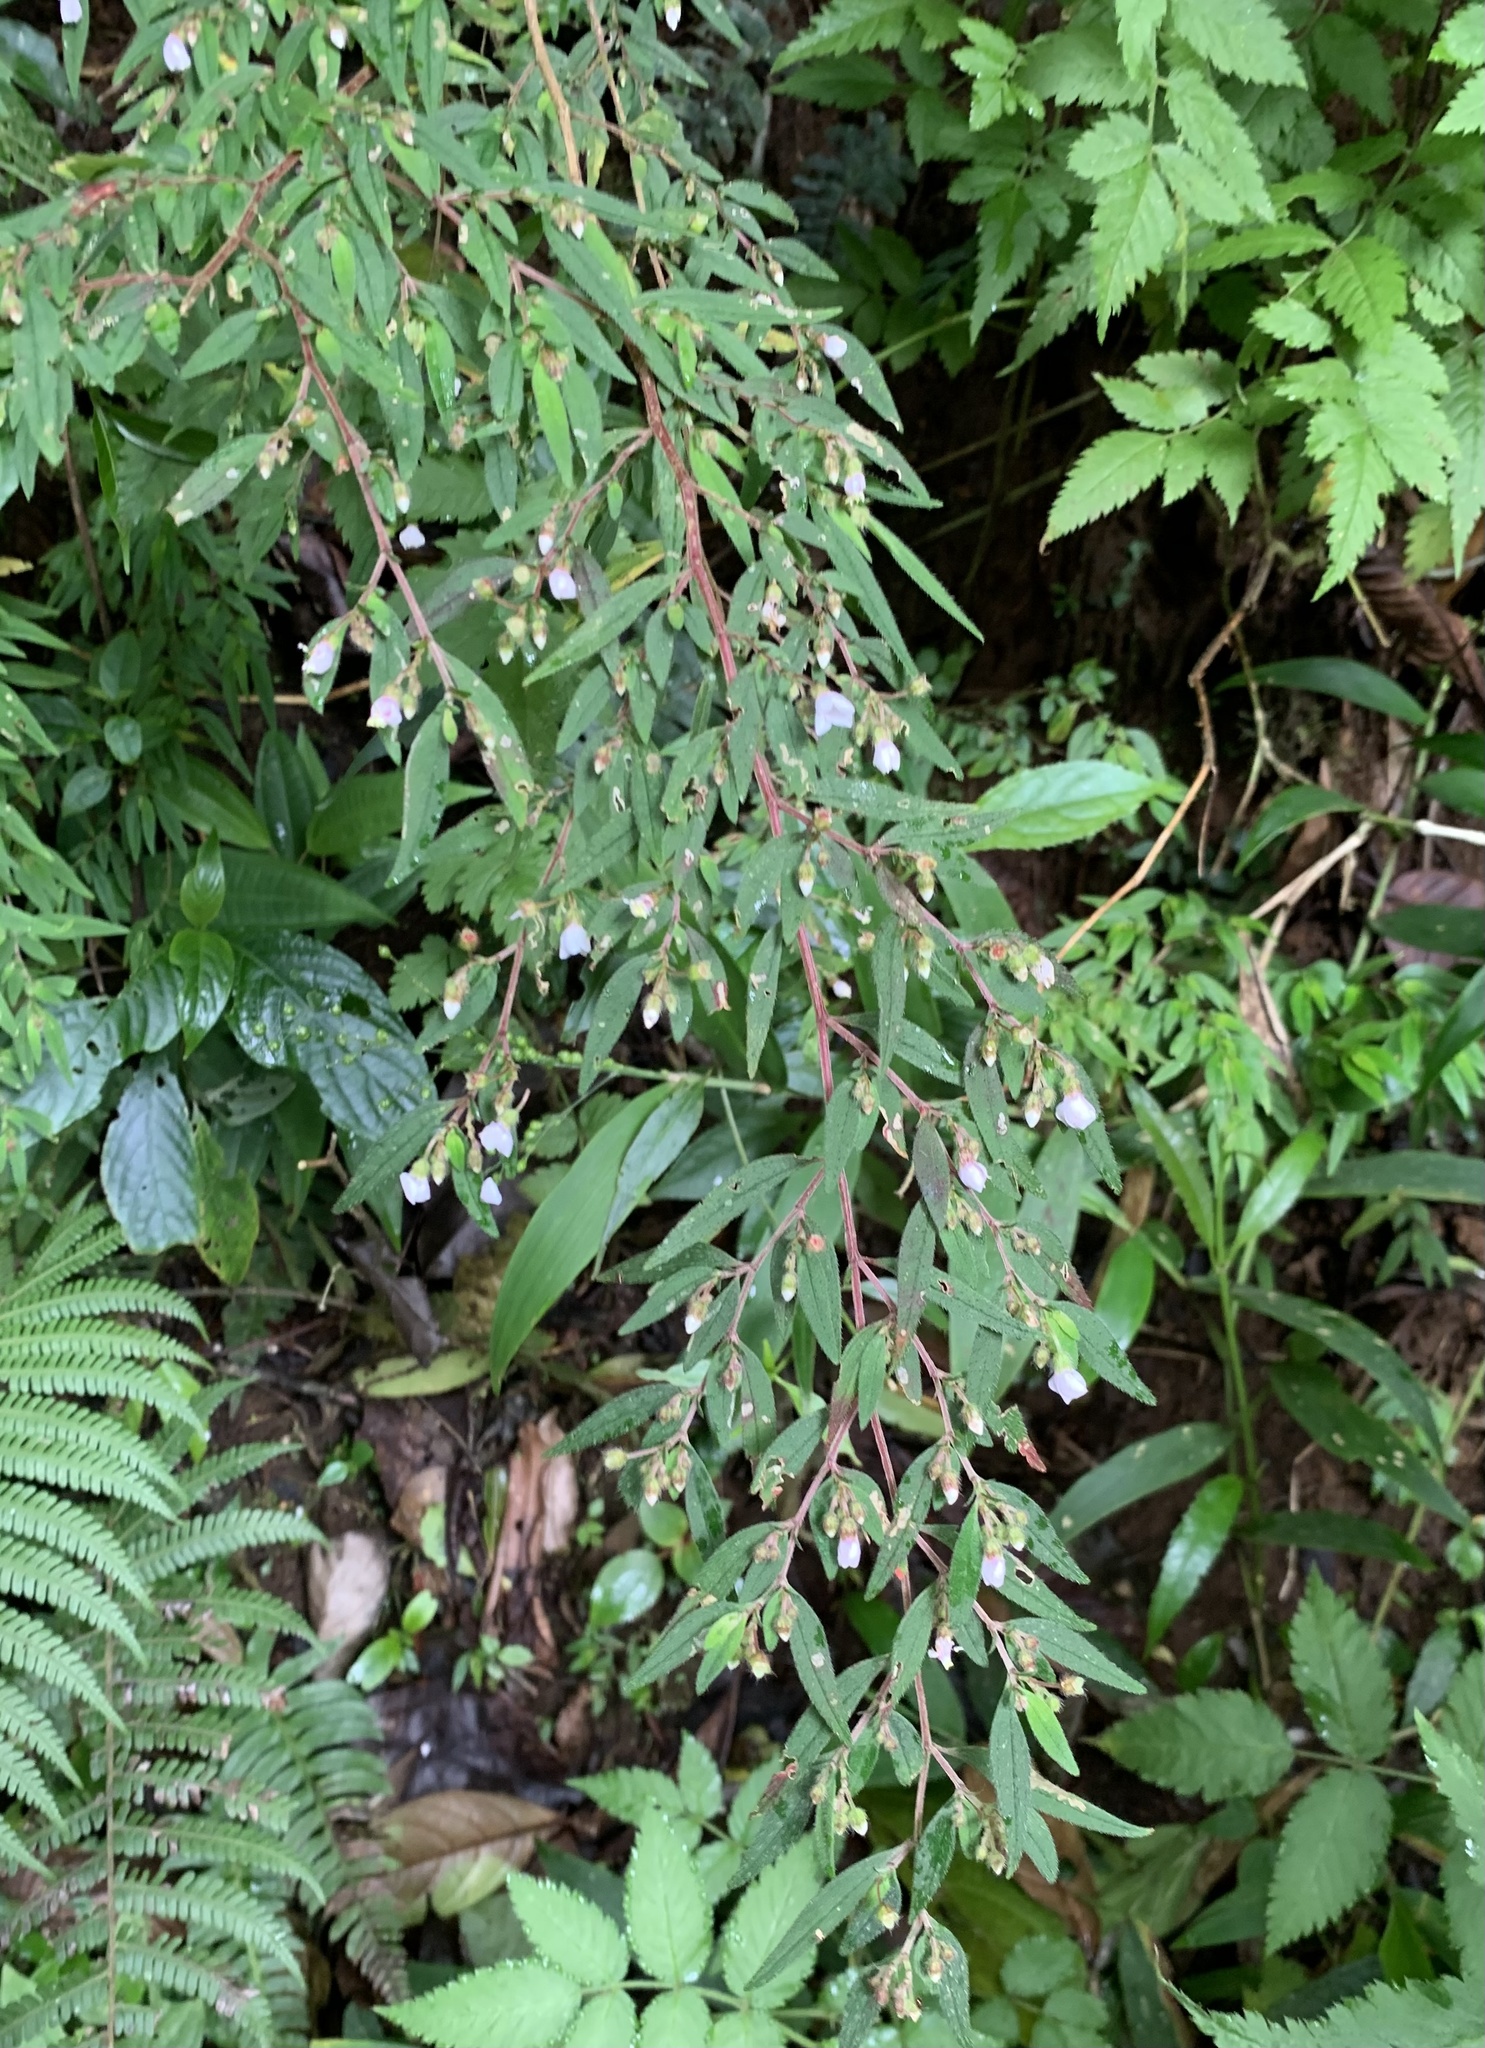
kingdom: Plantae
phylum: Tracheophyta
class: Magnoliopsida
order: Myrtales
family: Melastomataceae
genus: Centradenia
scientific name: Centradenia inaequilateralis
